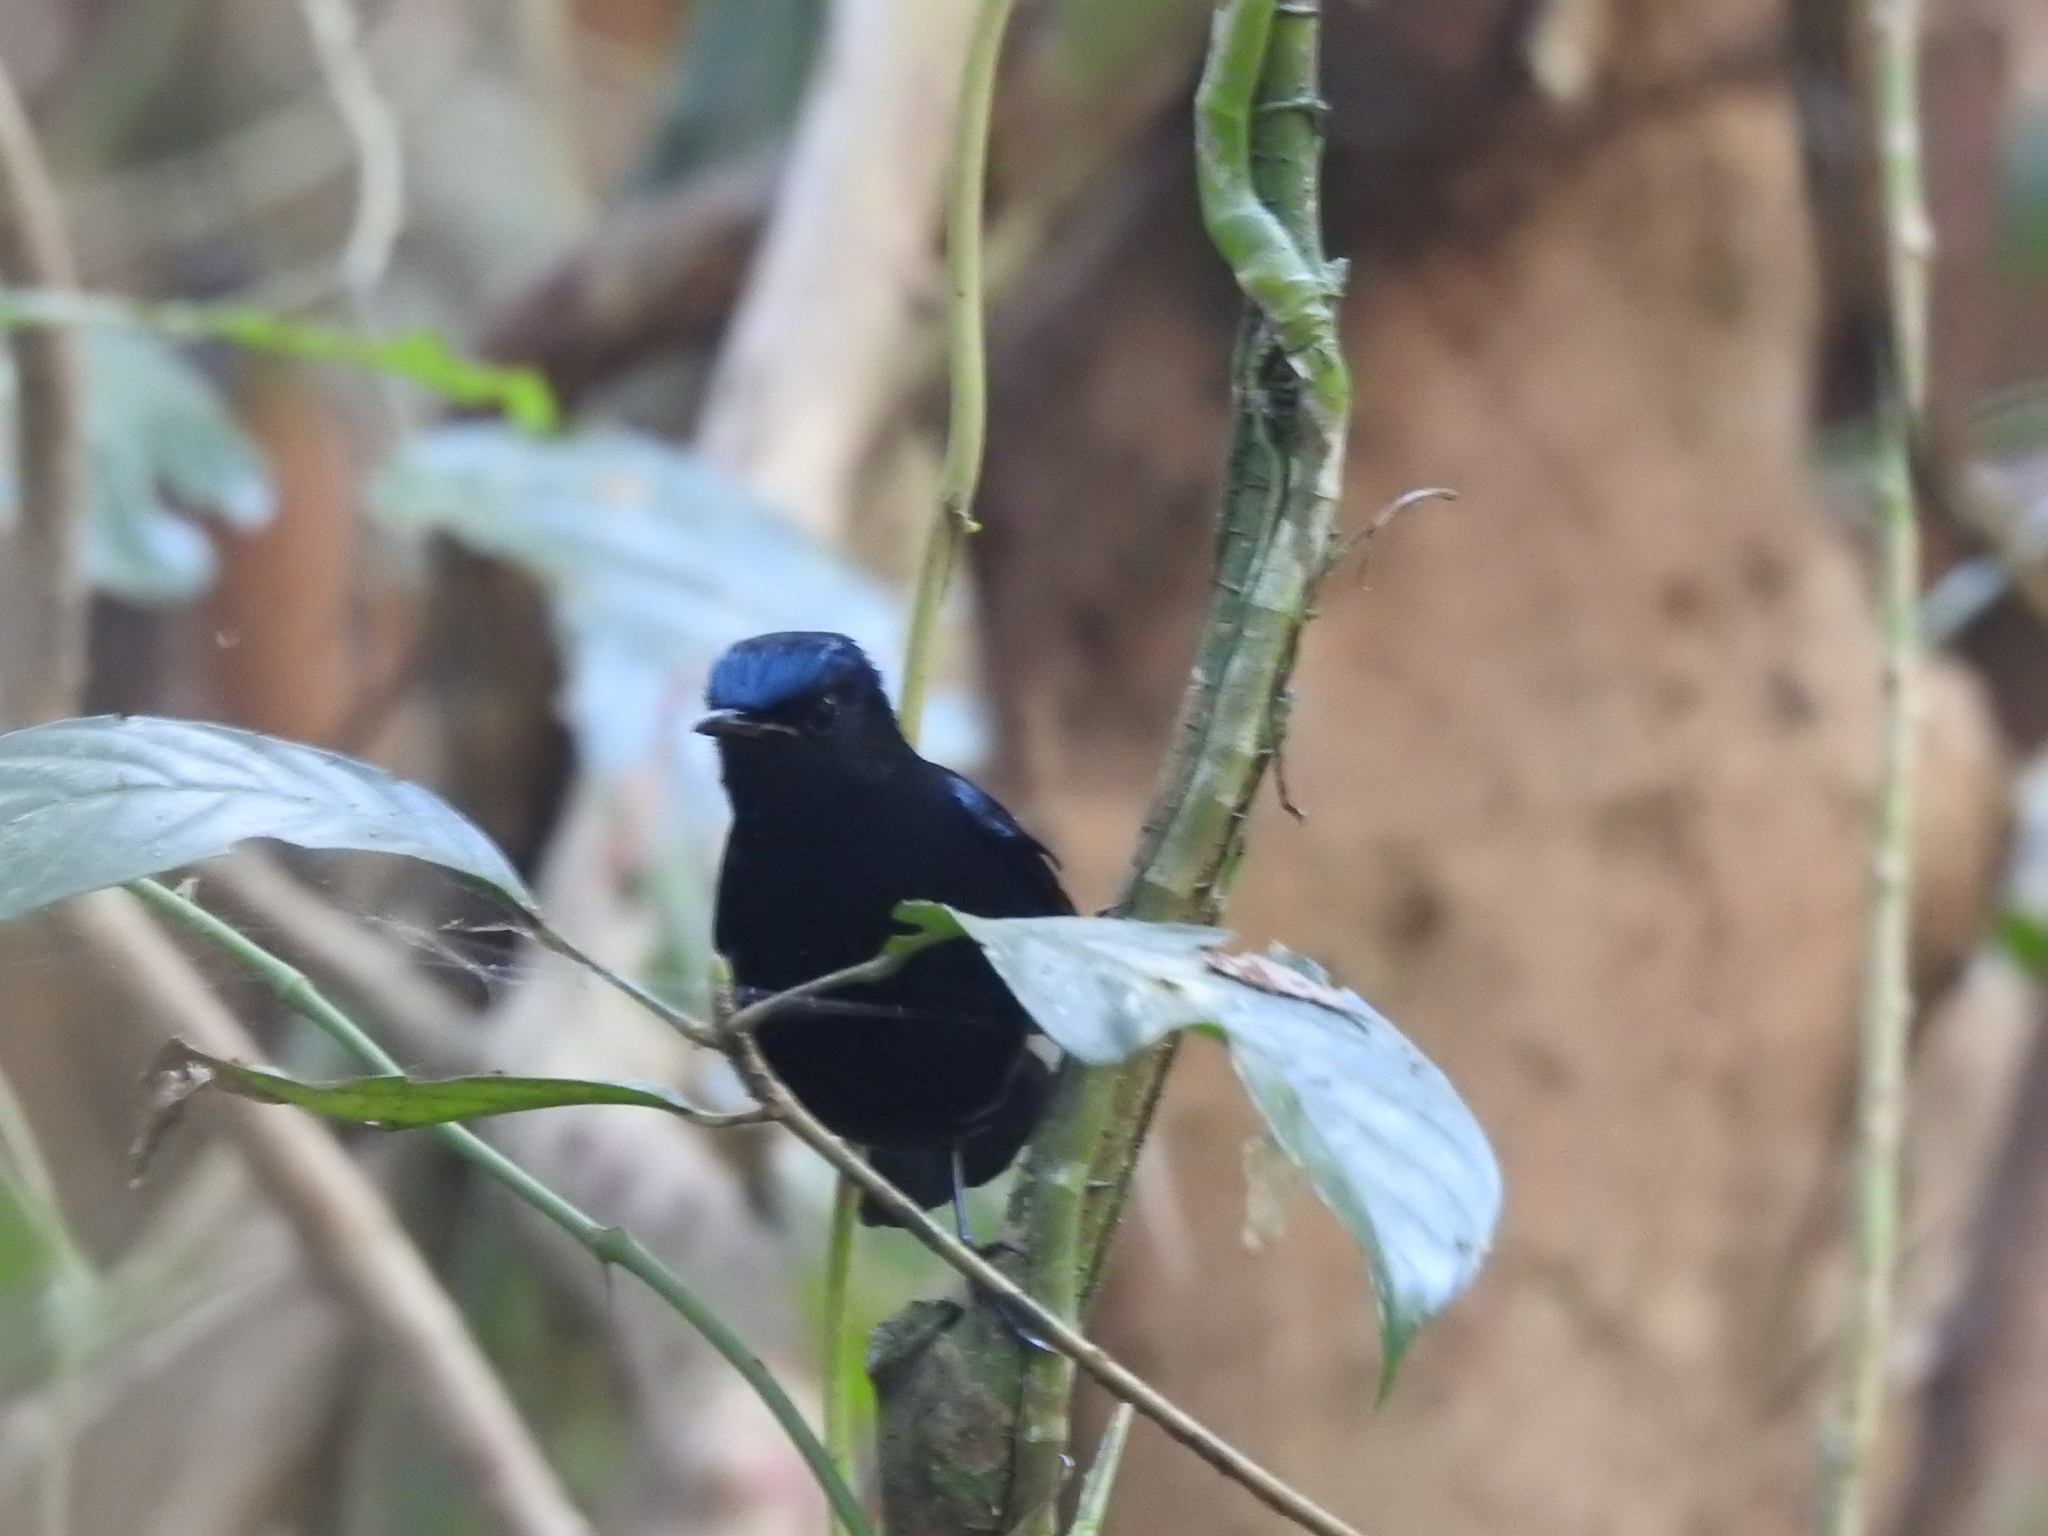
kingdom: Animalia
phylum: Chordata
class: Aves
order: Passeriformes
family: Muscicapidae
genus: Cinclidium
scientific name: Cinclidium frontale
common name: Blue-fronted robin
